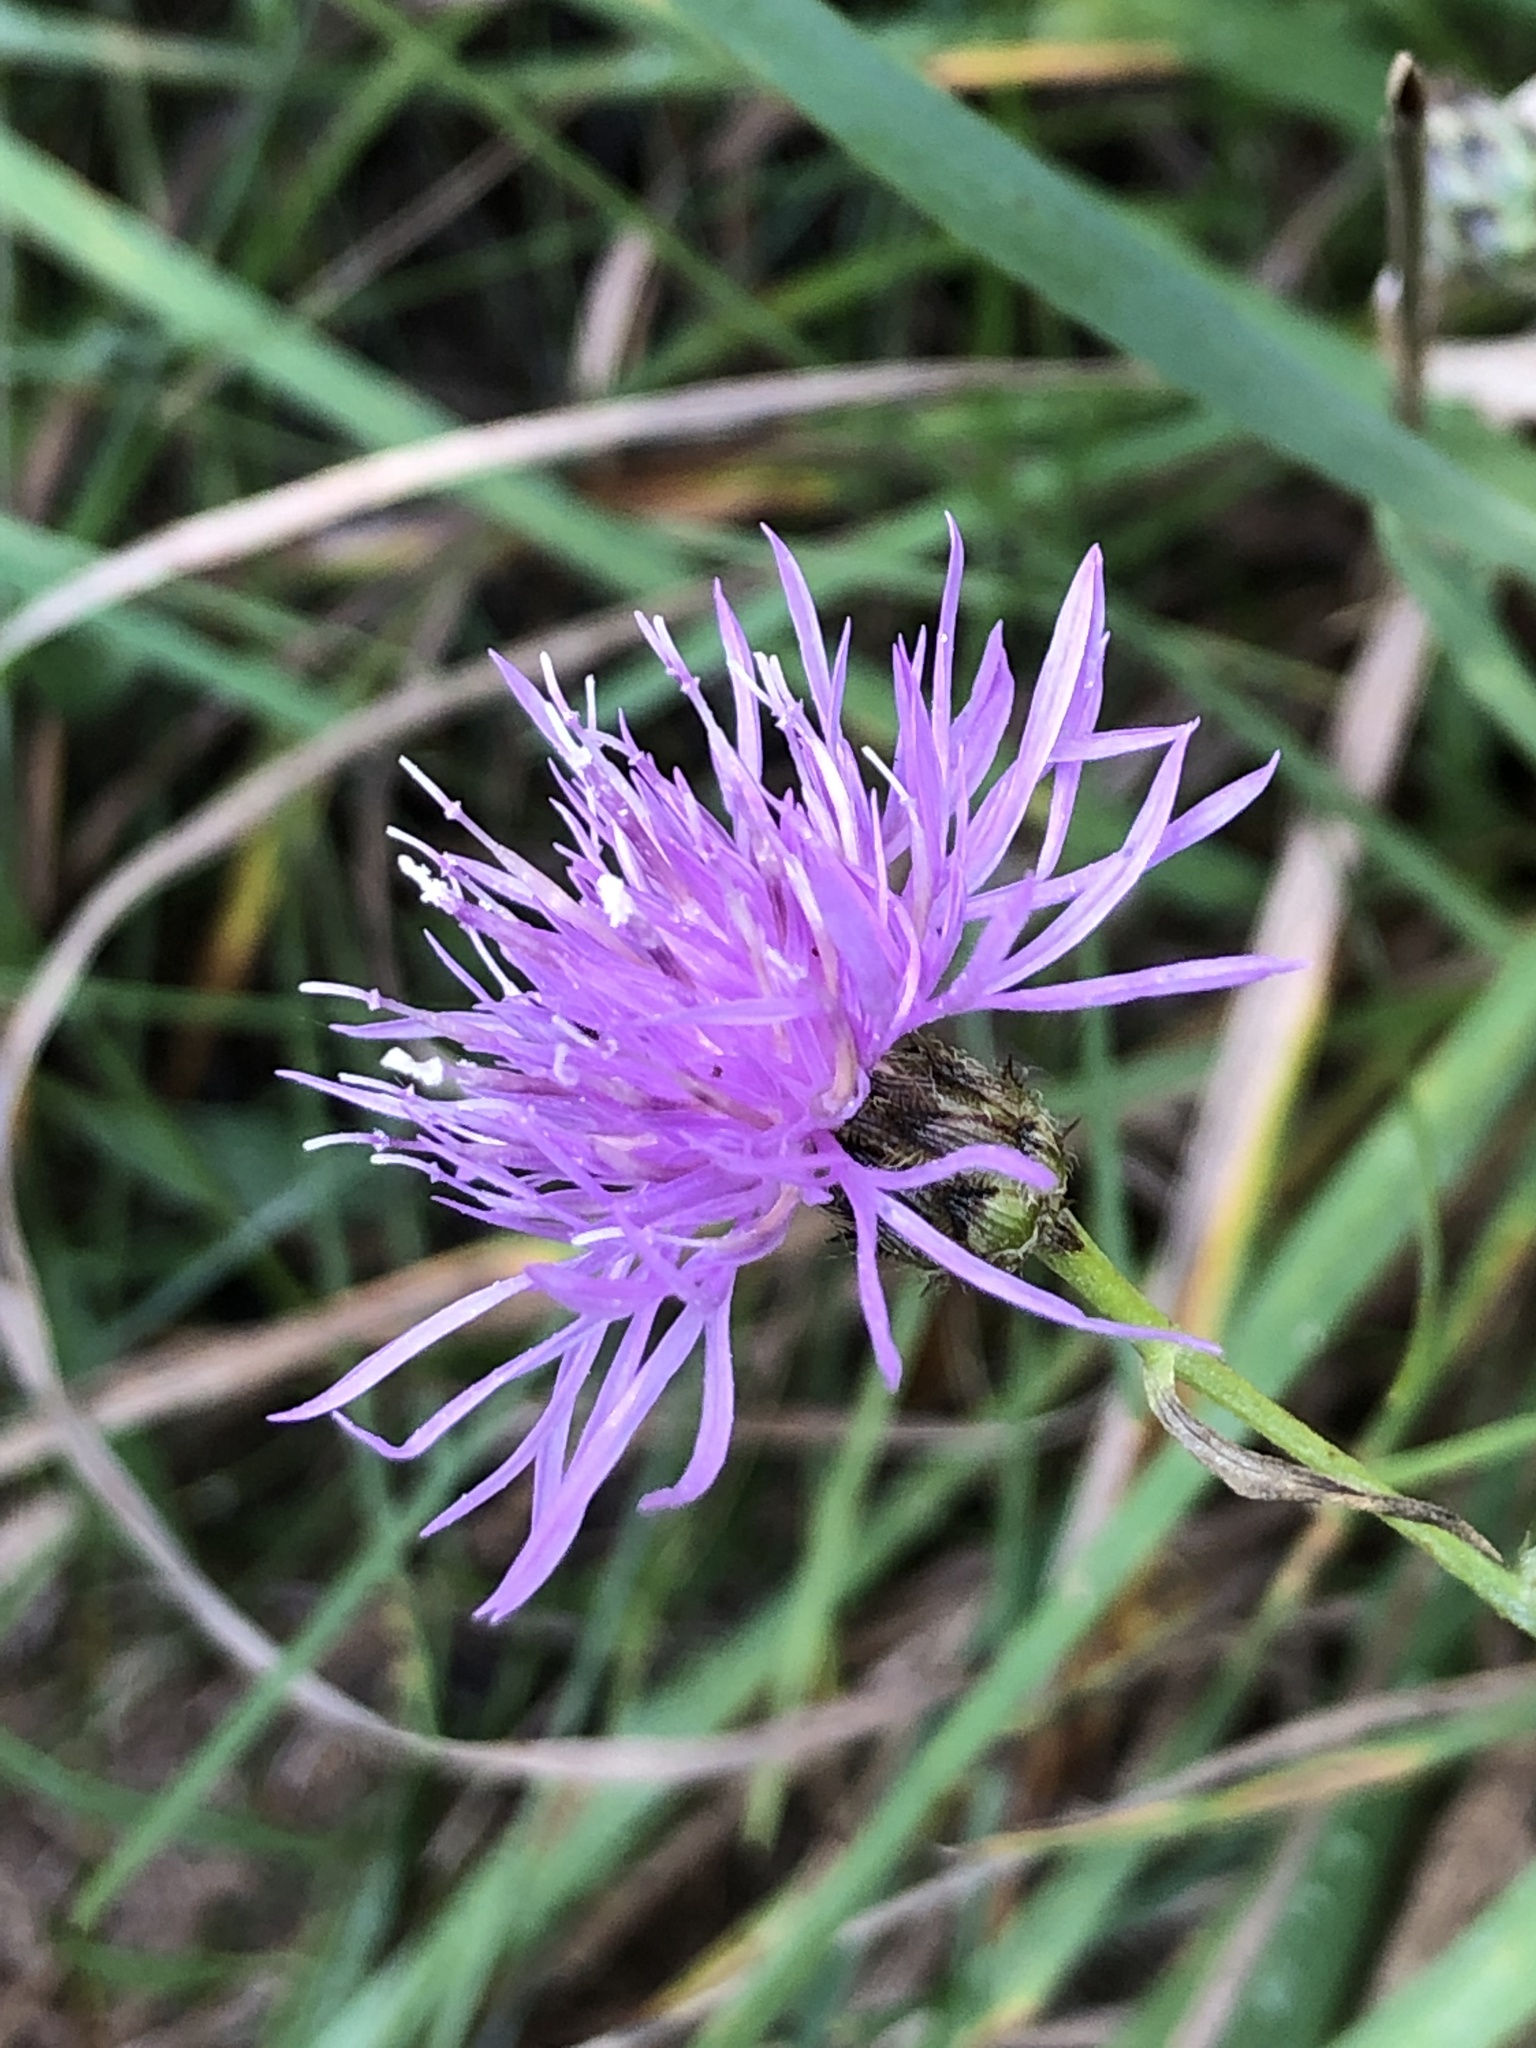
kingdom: Plantae
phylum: Tracheophyta
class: Magnoliopsida
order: Asterales
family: Asteraceae
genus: Centaurea
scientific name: Centaurea stoebe
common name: Spotted knapweed
